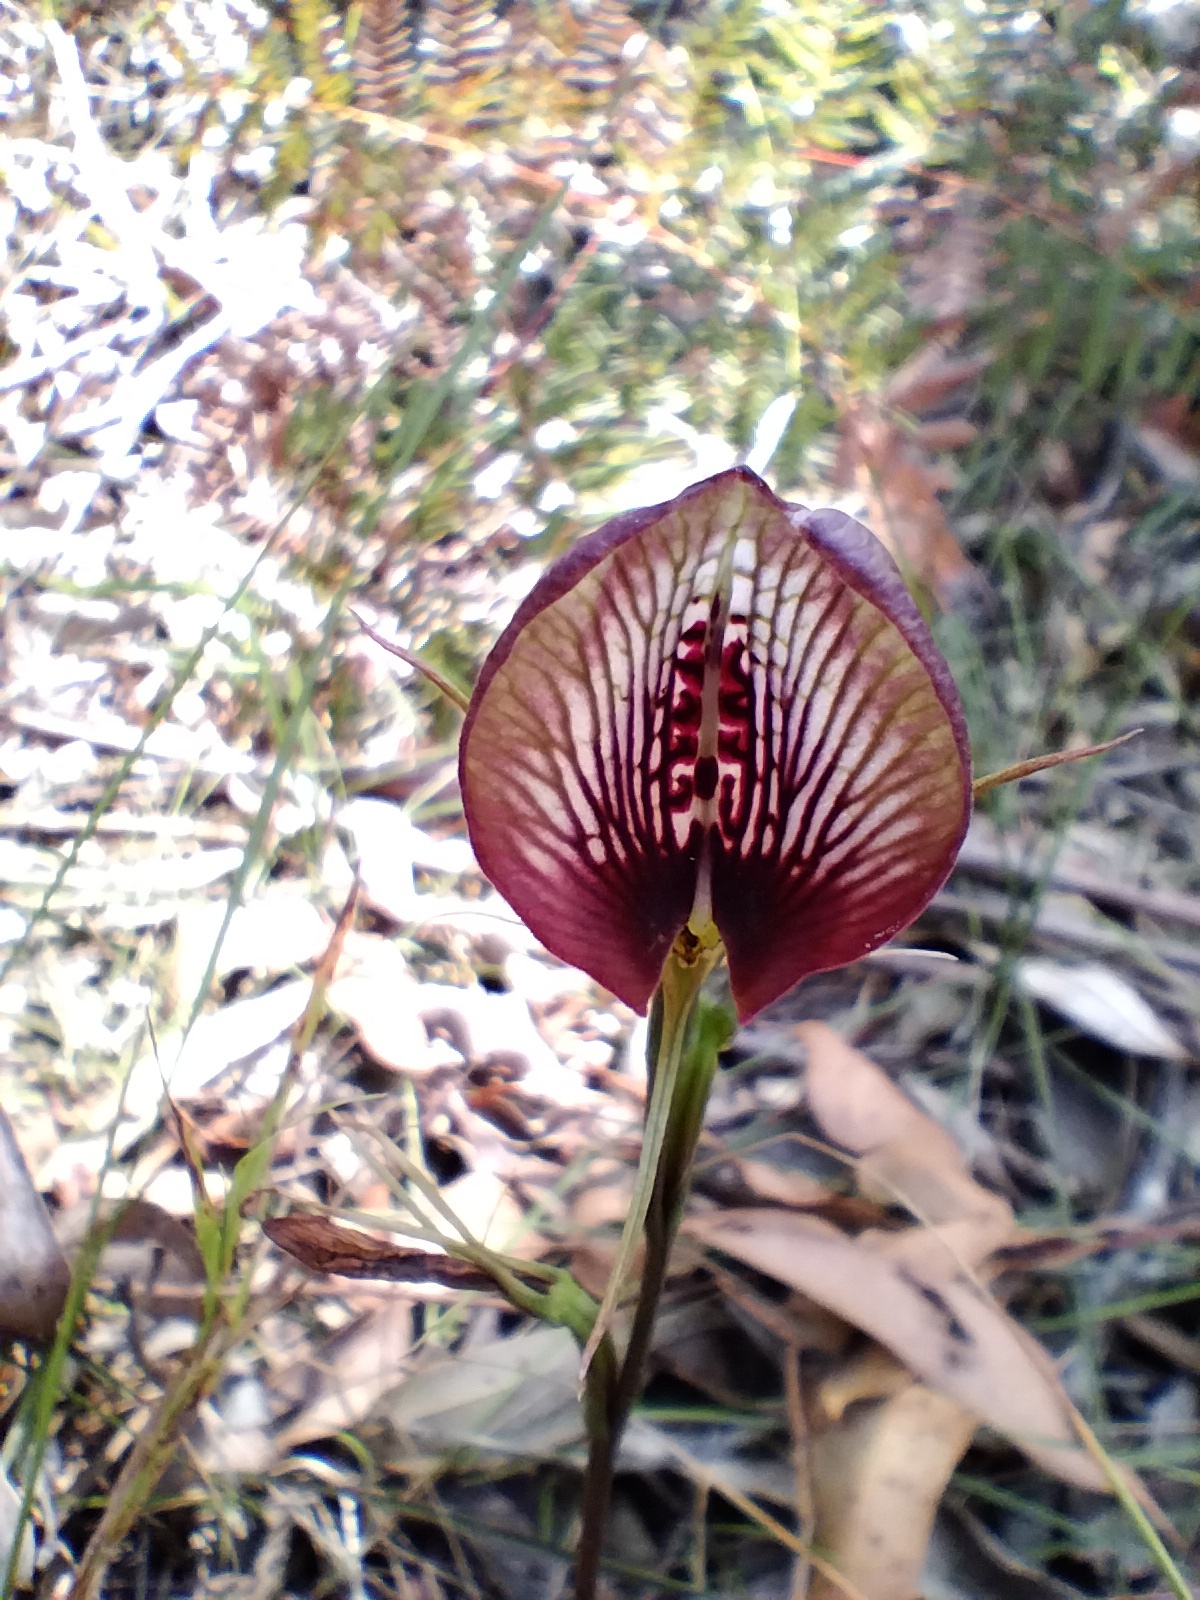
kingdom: Plantae
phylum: Tracheophyta
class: Liliopsida
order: Asparagales
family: Orchidaceae
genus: Cryptostylis
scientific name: Cryptostylis erecta
